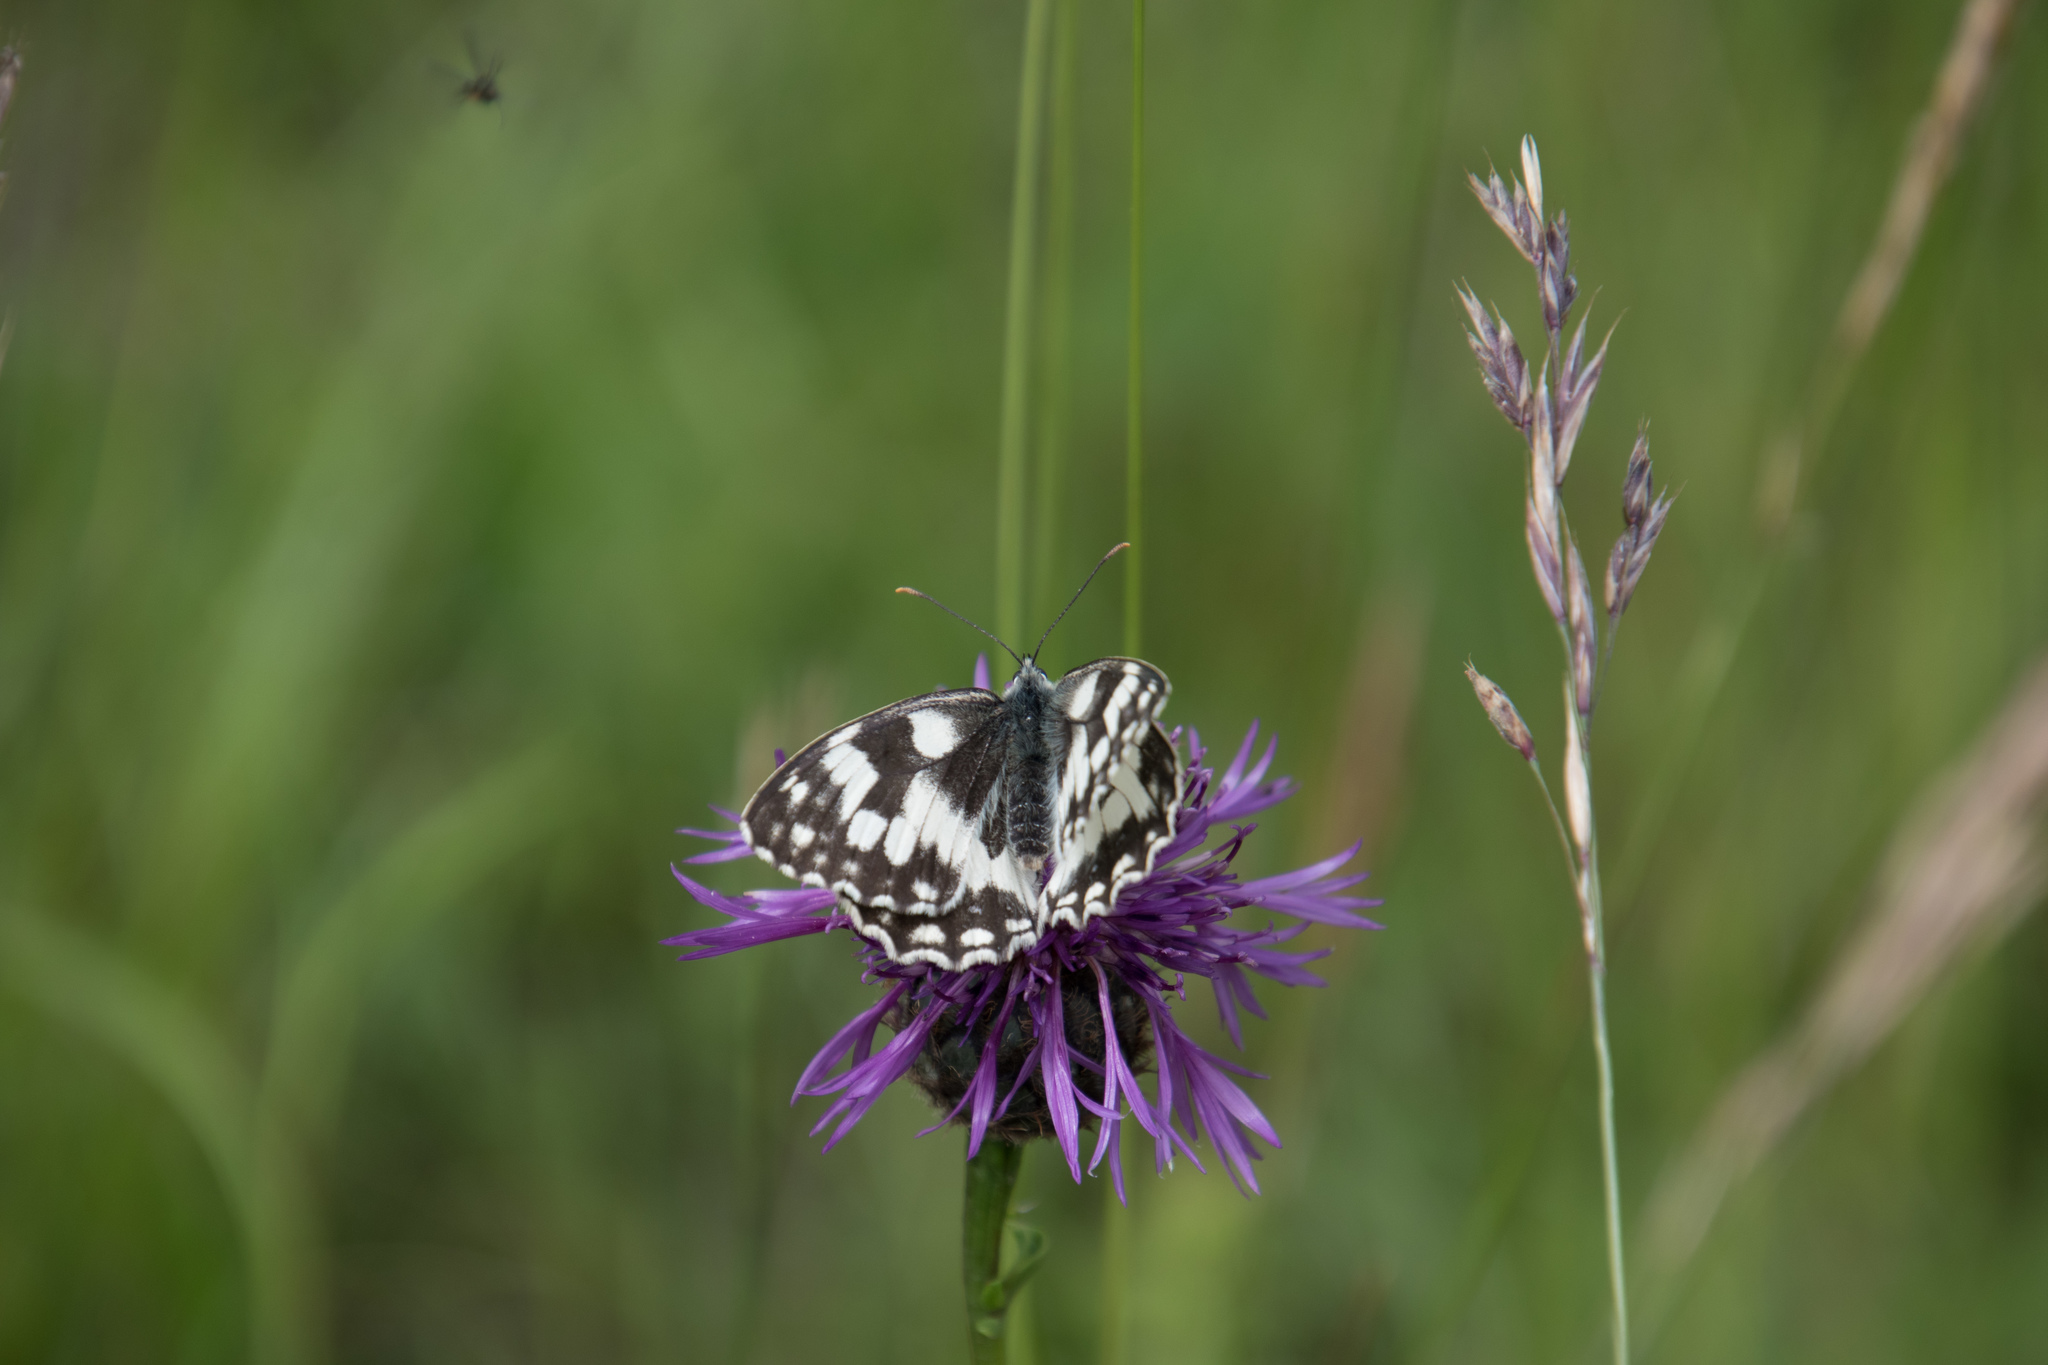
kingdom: Animalia
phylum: Arthropoda
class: Insecta
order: Lepidoptera
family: Nymphalidae
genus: Melanargia
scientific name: Melanargia galathea
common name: Marbled white
